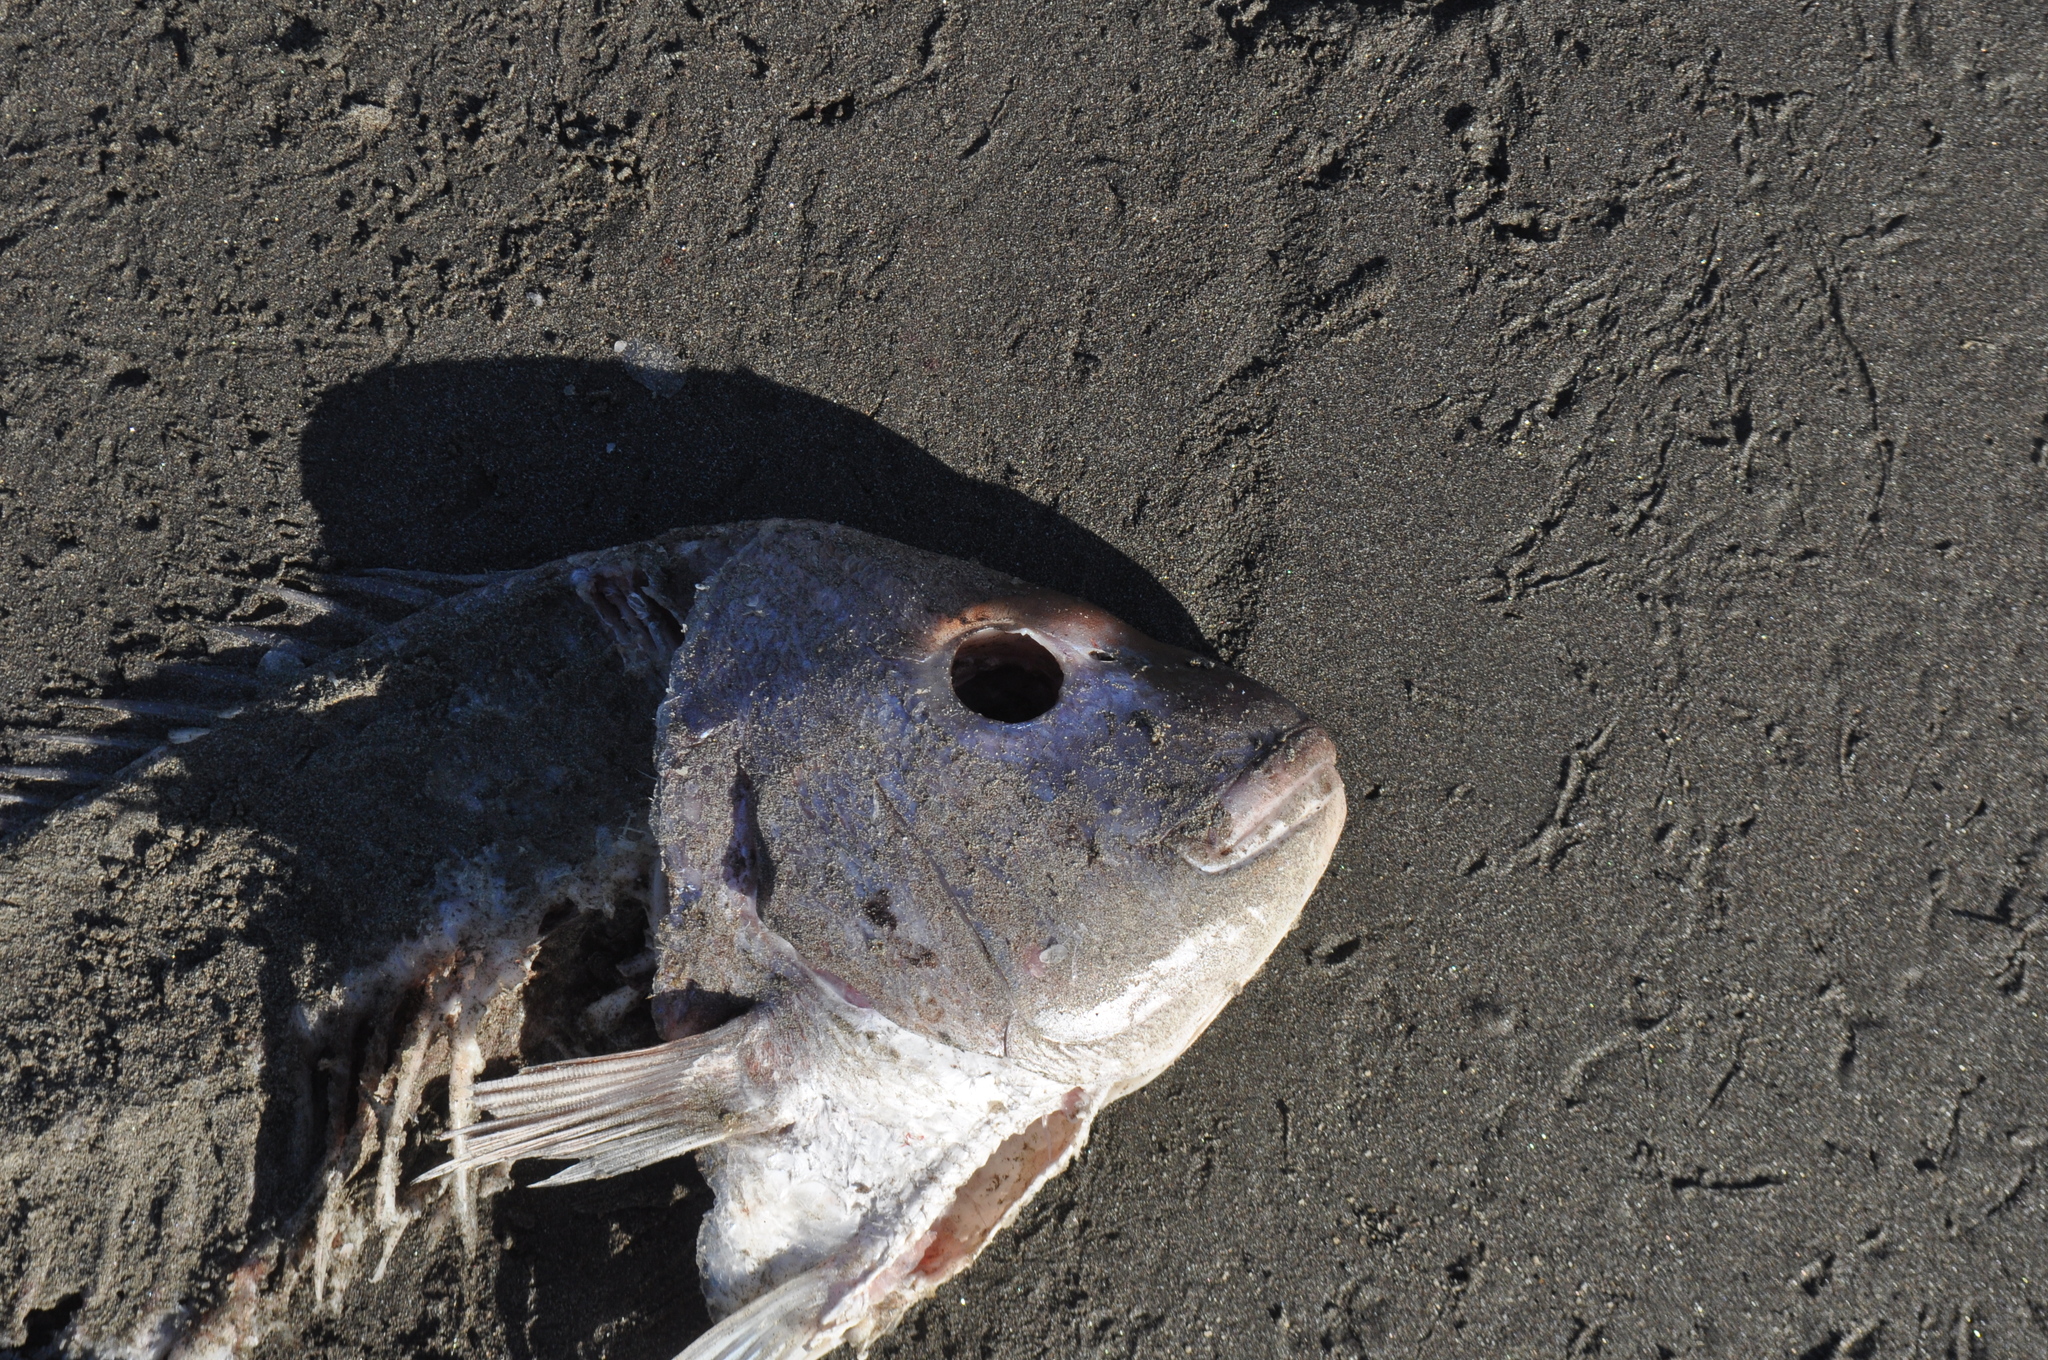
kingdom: Animalia
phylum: Chordata
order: Perciformes
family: Sparidae
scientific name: Sparidae
